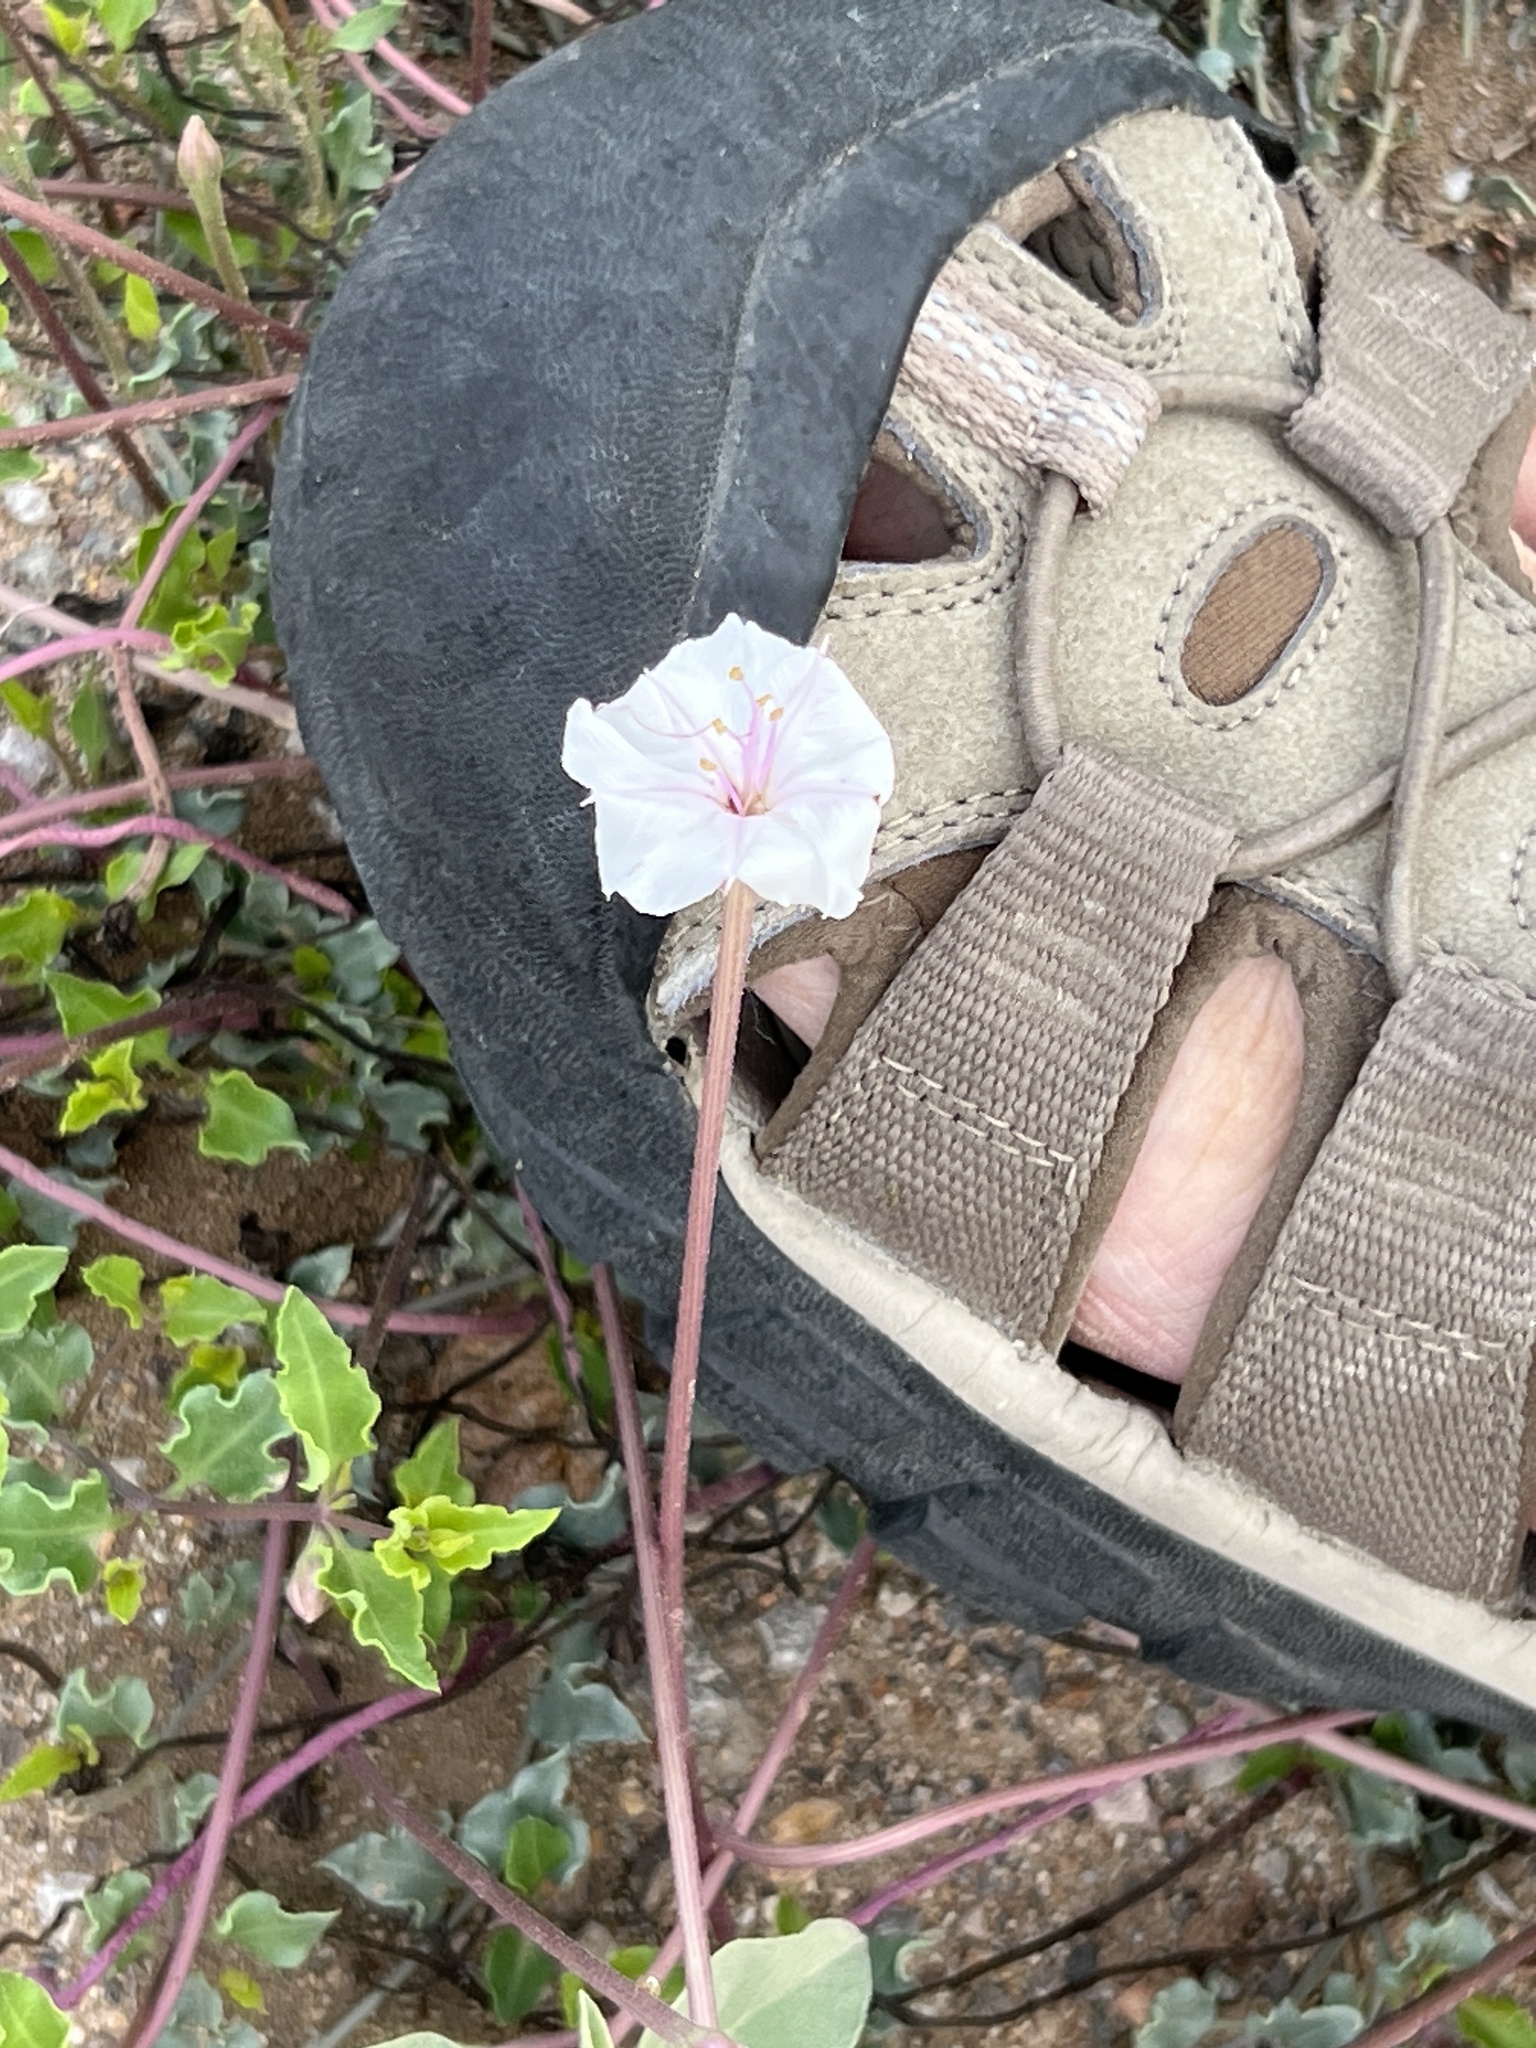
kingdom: Plantae
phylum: Tracheophyta
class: Magnoliopsida
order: Caryophyllales
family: Nyctaginaceae
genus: Acleisanthes
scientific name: Acleisanthes longiflora
